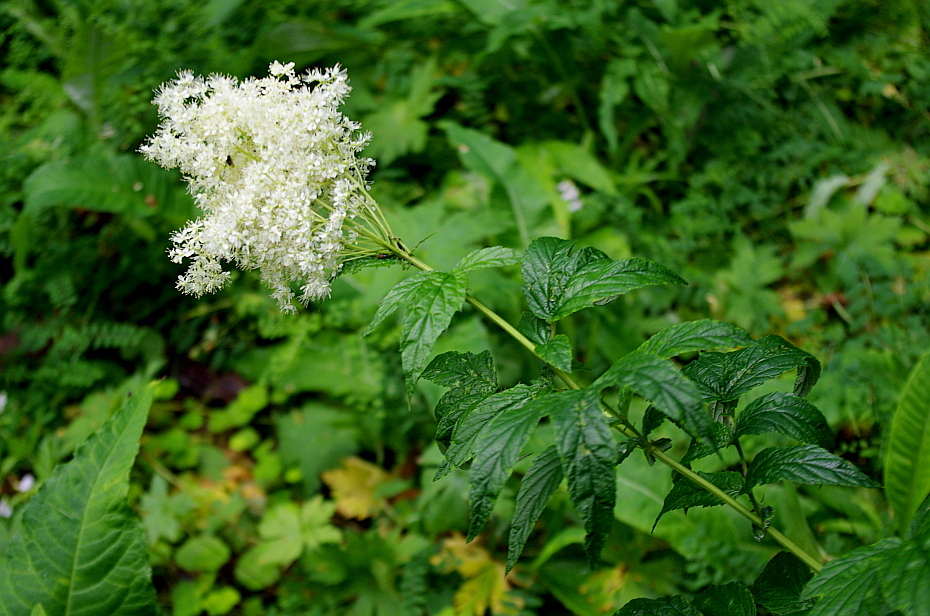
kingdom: Plantae
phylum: Tracheophyta
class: Magnoliopsida
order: Rosales
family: Rosaceae
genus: Filipendula
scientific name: Filipendula ulmaria
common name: Meadowsweet
